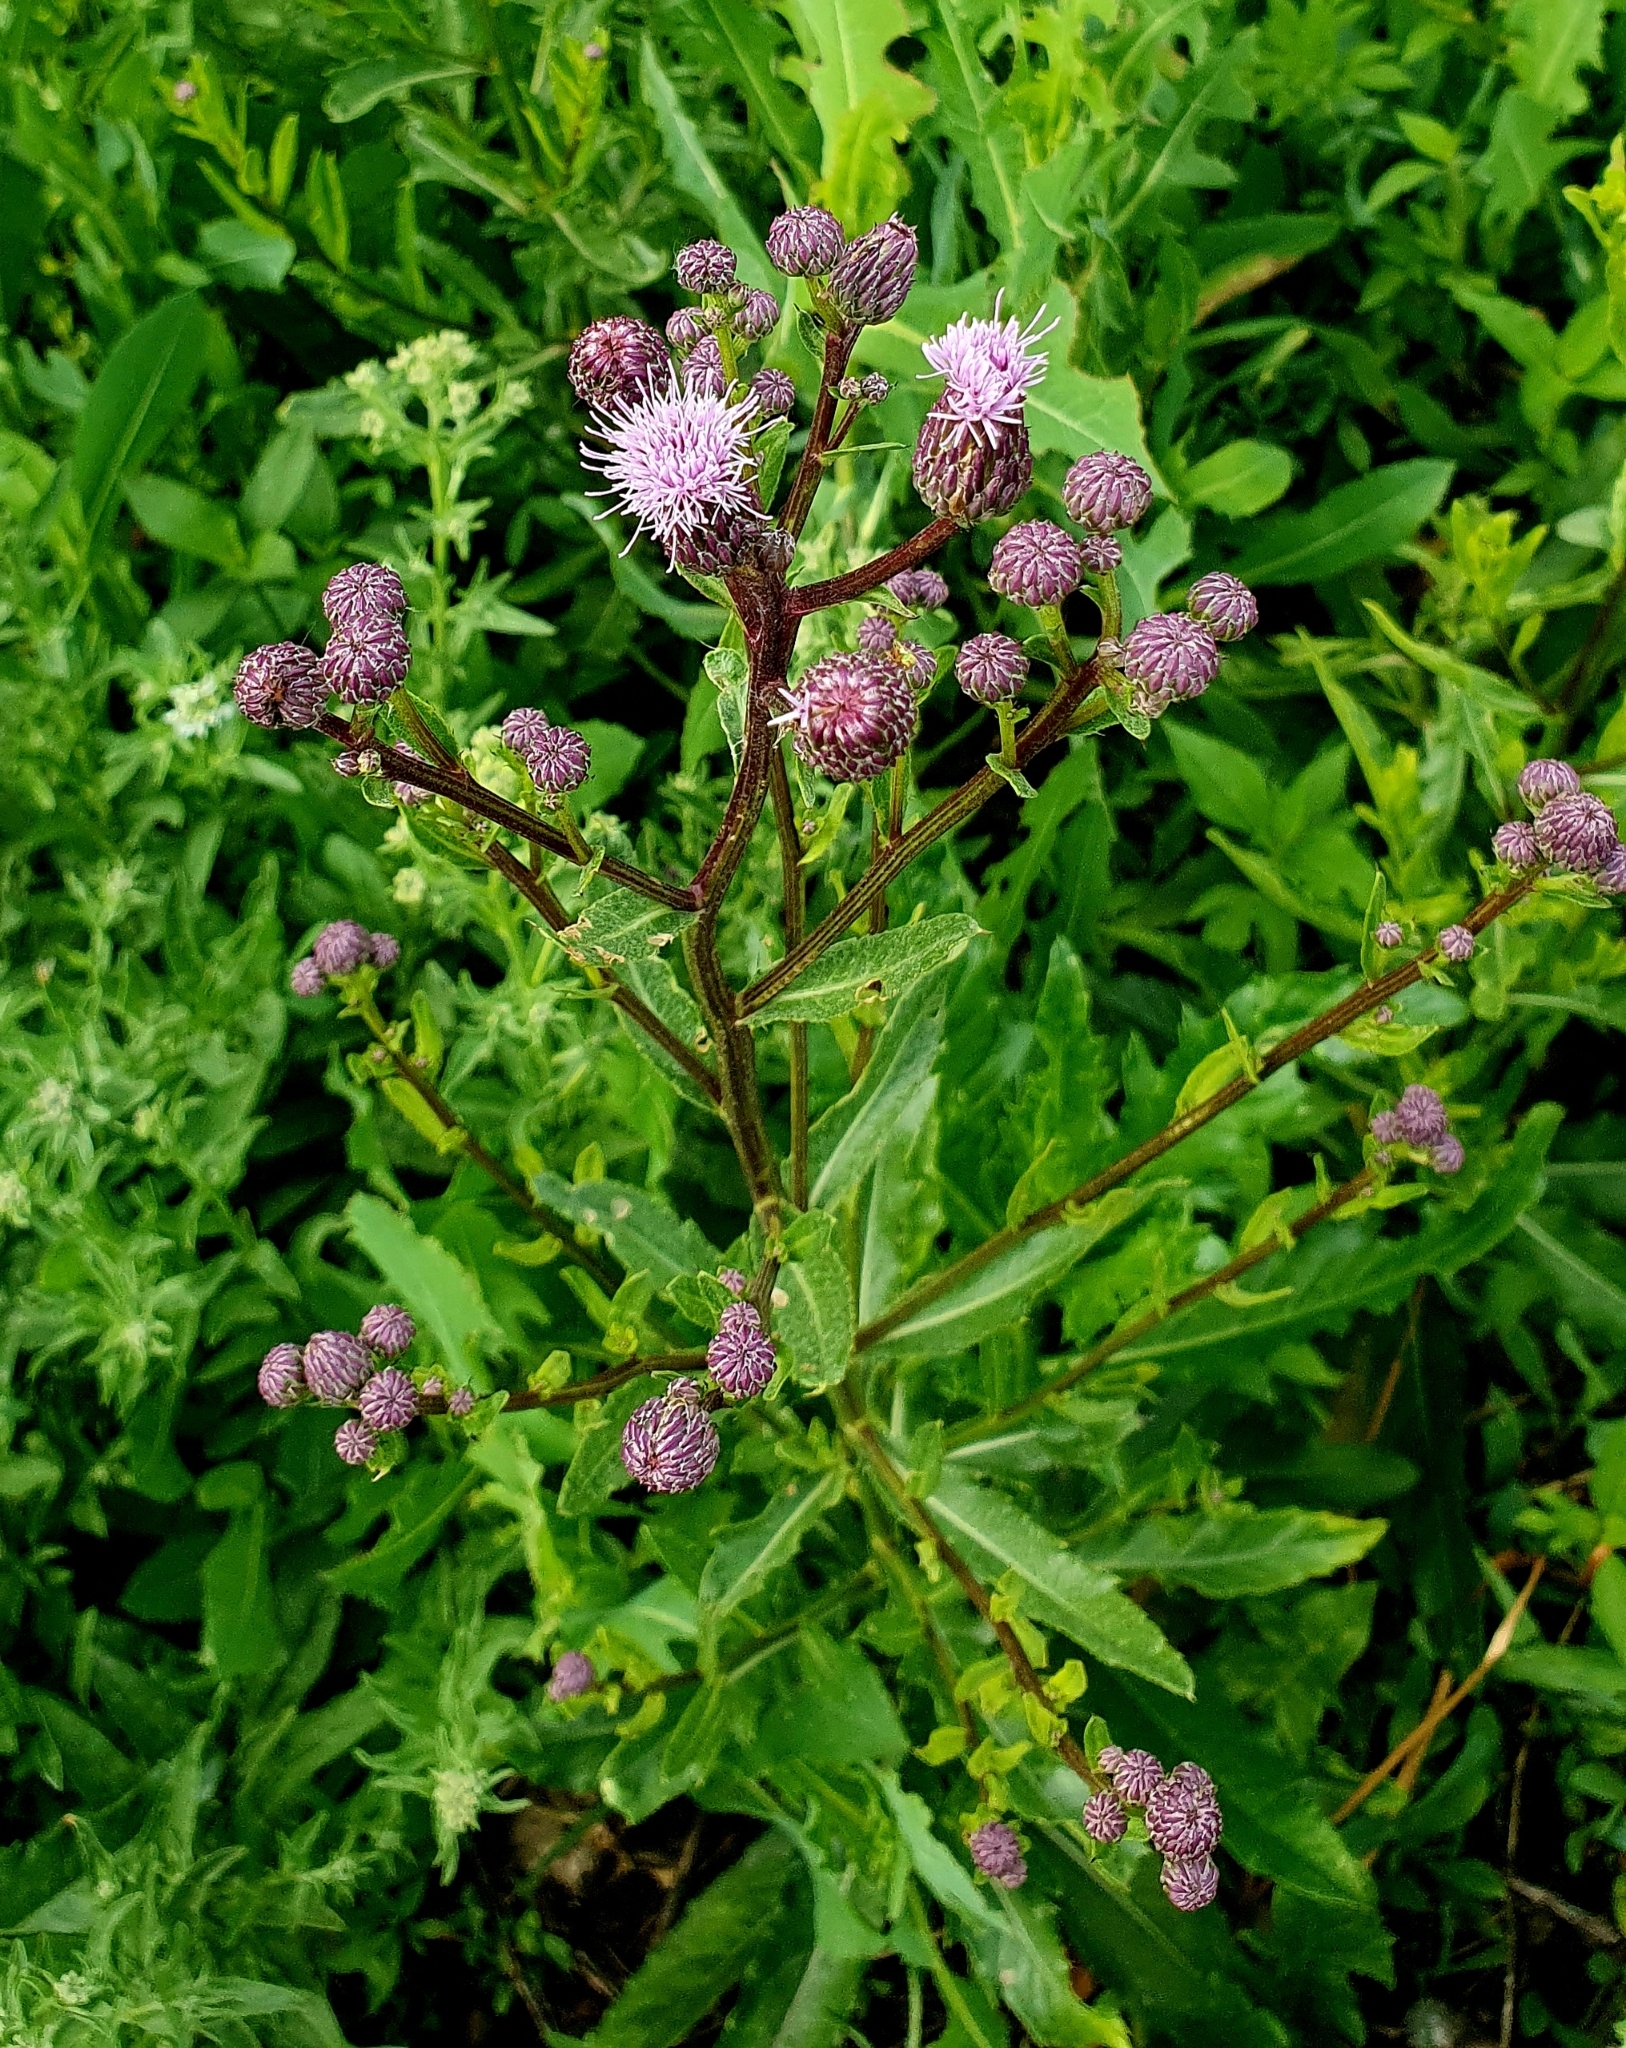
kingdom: Plantae
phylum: Tracheophyta
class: Magnoliopsida
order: Asterales
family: Asteraceae
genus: Cirsium
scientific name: Cirsium arvense
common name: Creeping thistle
